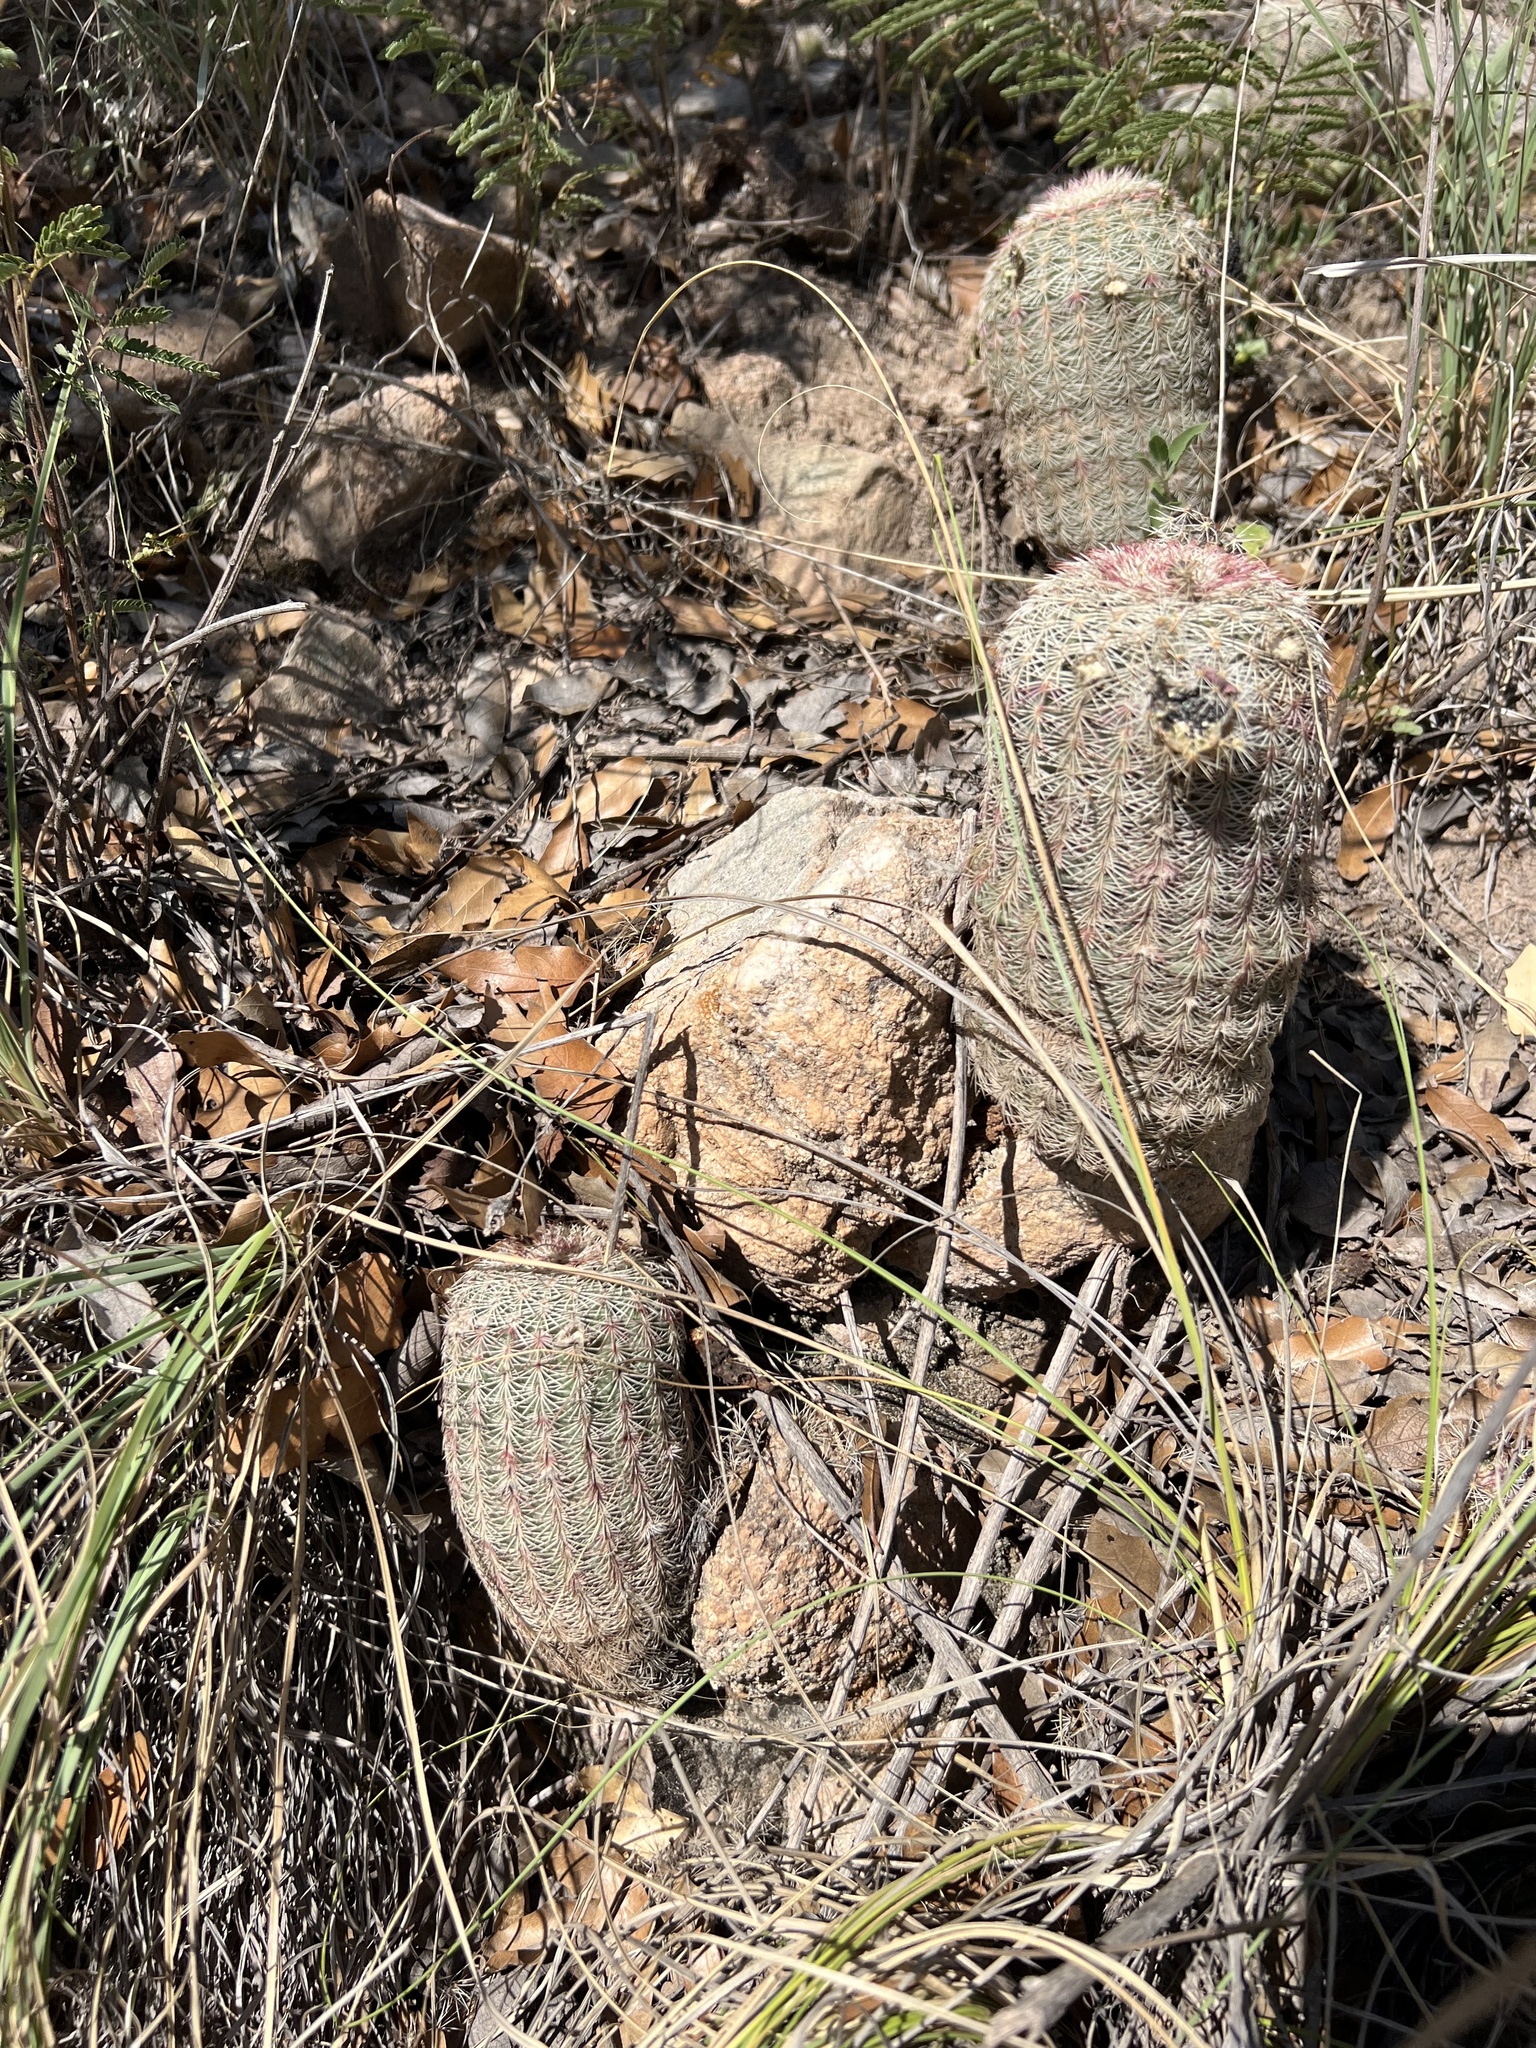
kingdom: Plantae
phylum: Tracheophyta
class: Magnoliopsida
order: Caryophyllales
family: Cactaceae
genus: Echinocereus
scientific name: Echinocereus rigidissimus
